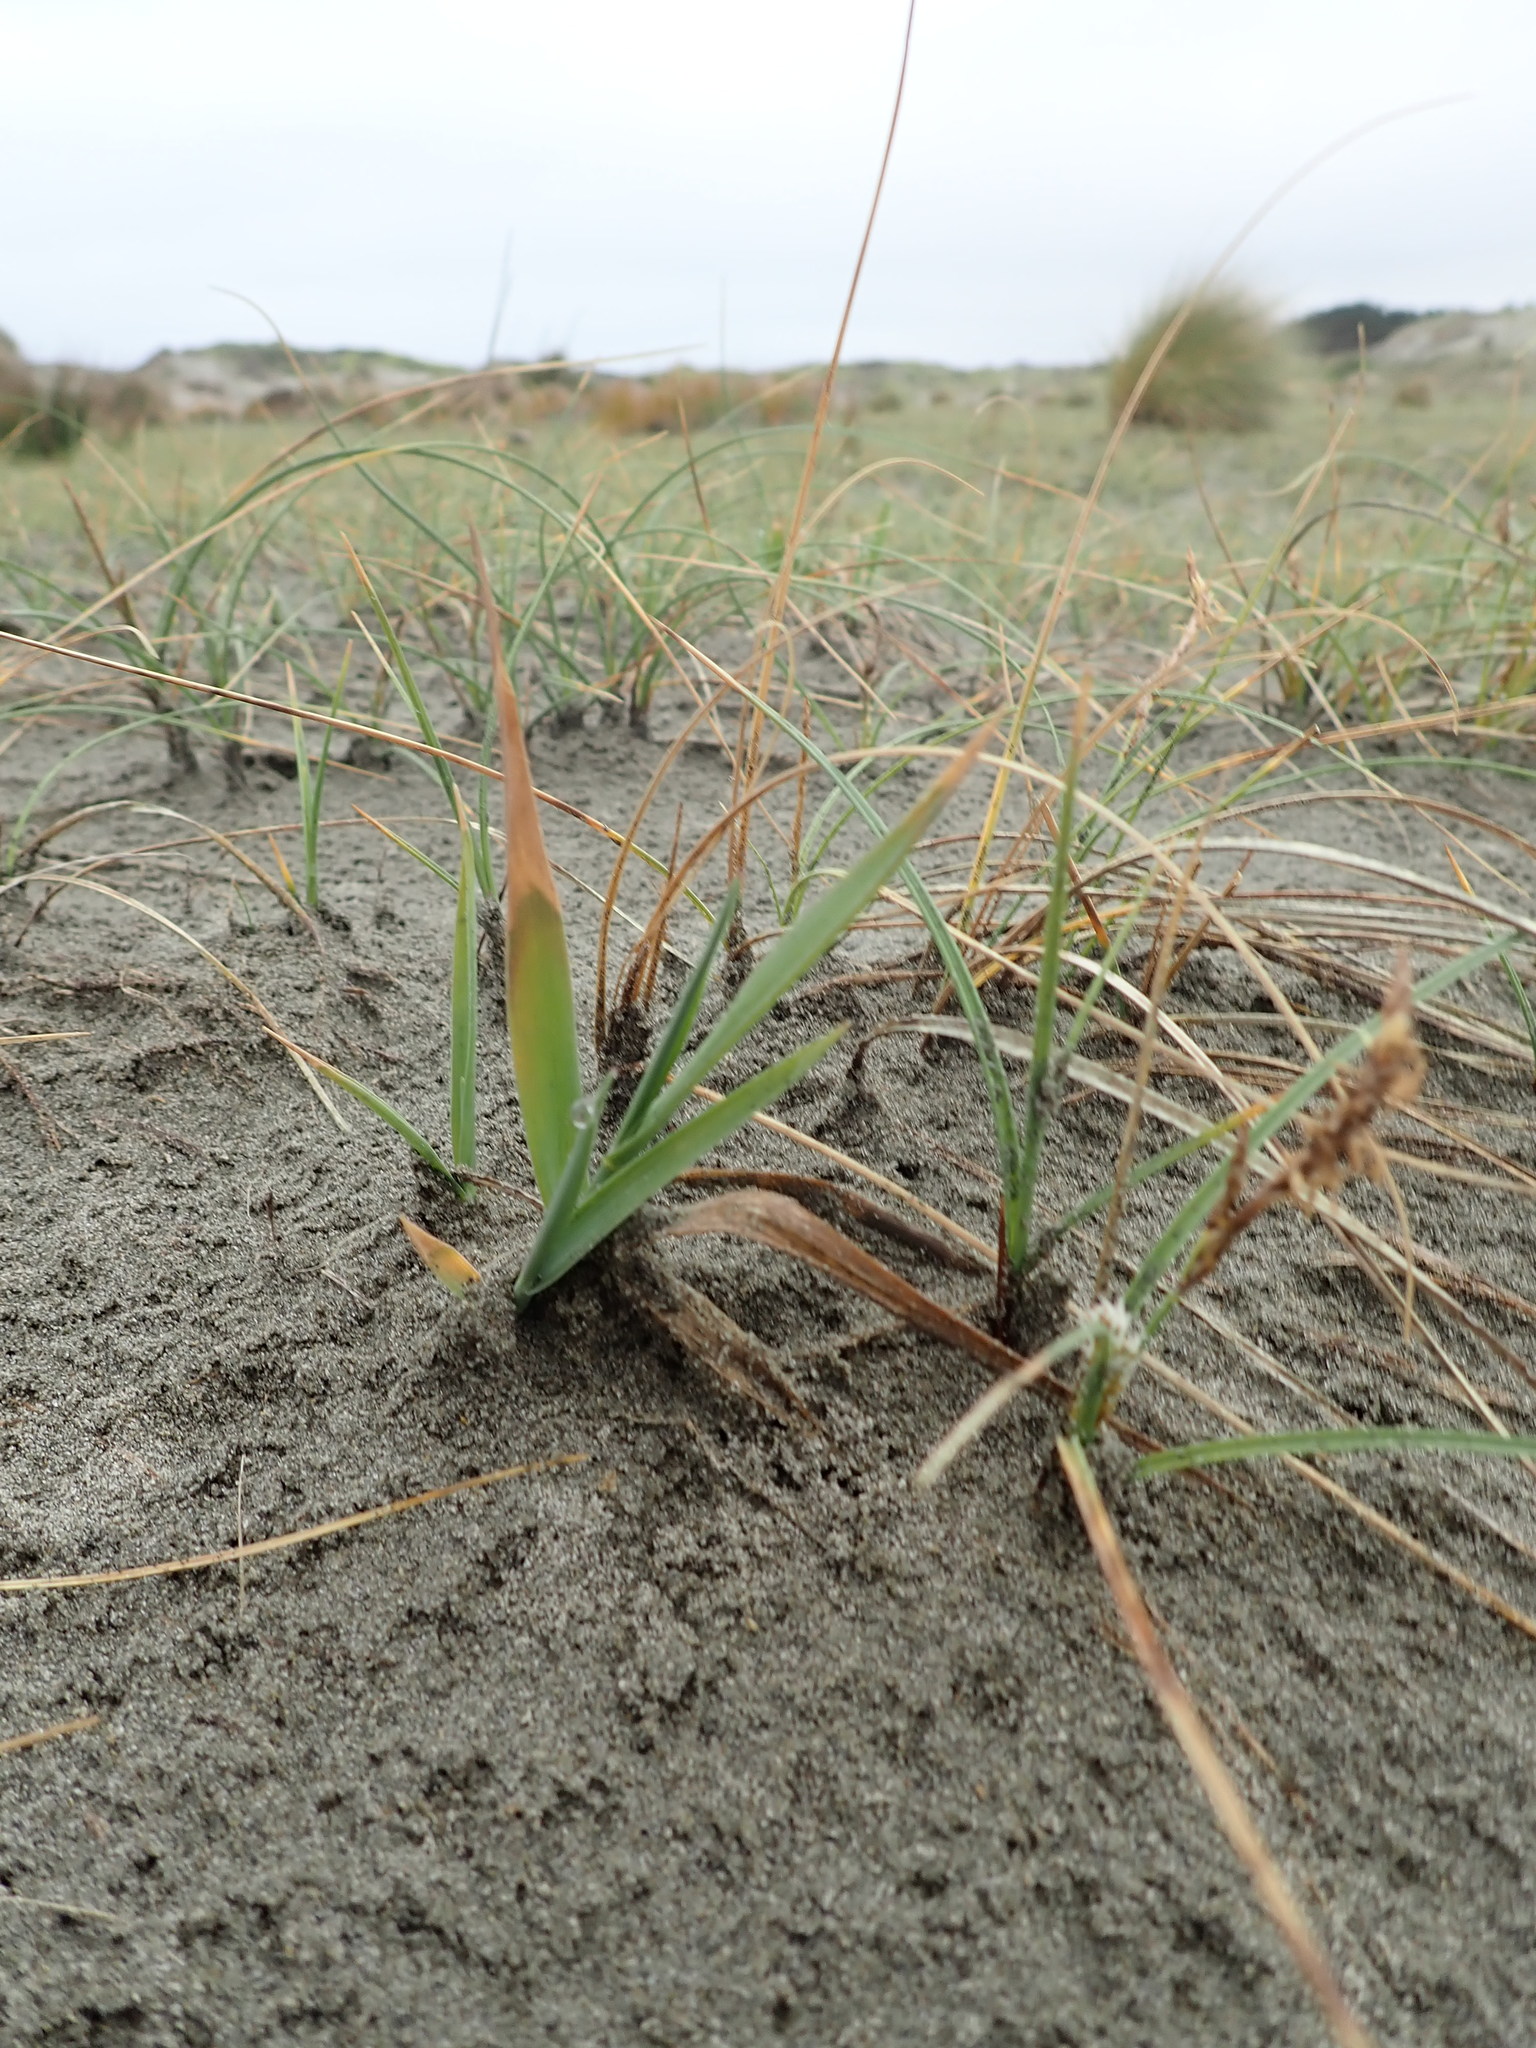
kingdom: Plantae
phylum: Tracheophyta
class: Liliopsida
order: Poales
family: Poaceae
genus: Lachnagrostis
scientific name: Lachnagrostis billardierei
